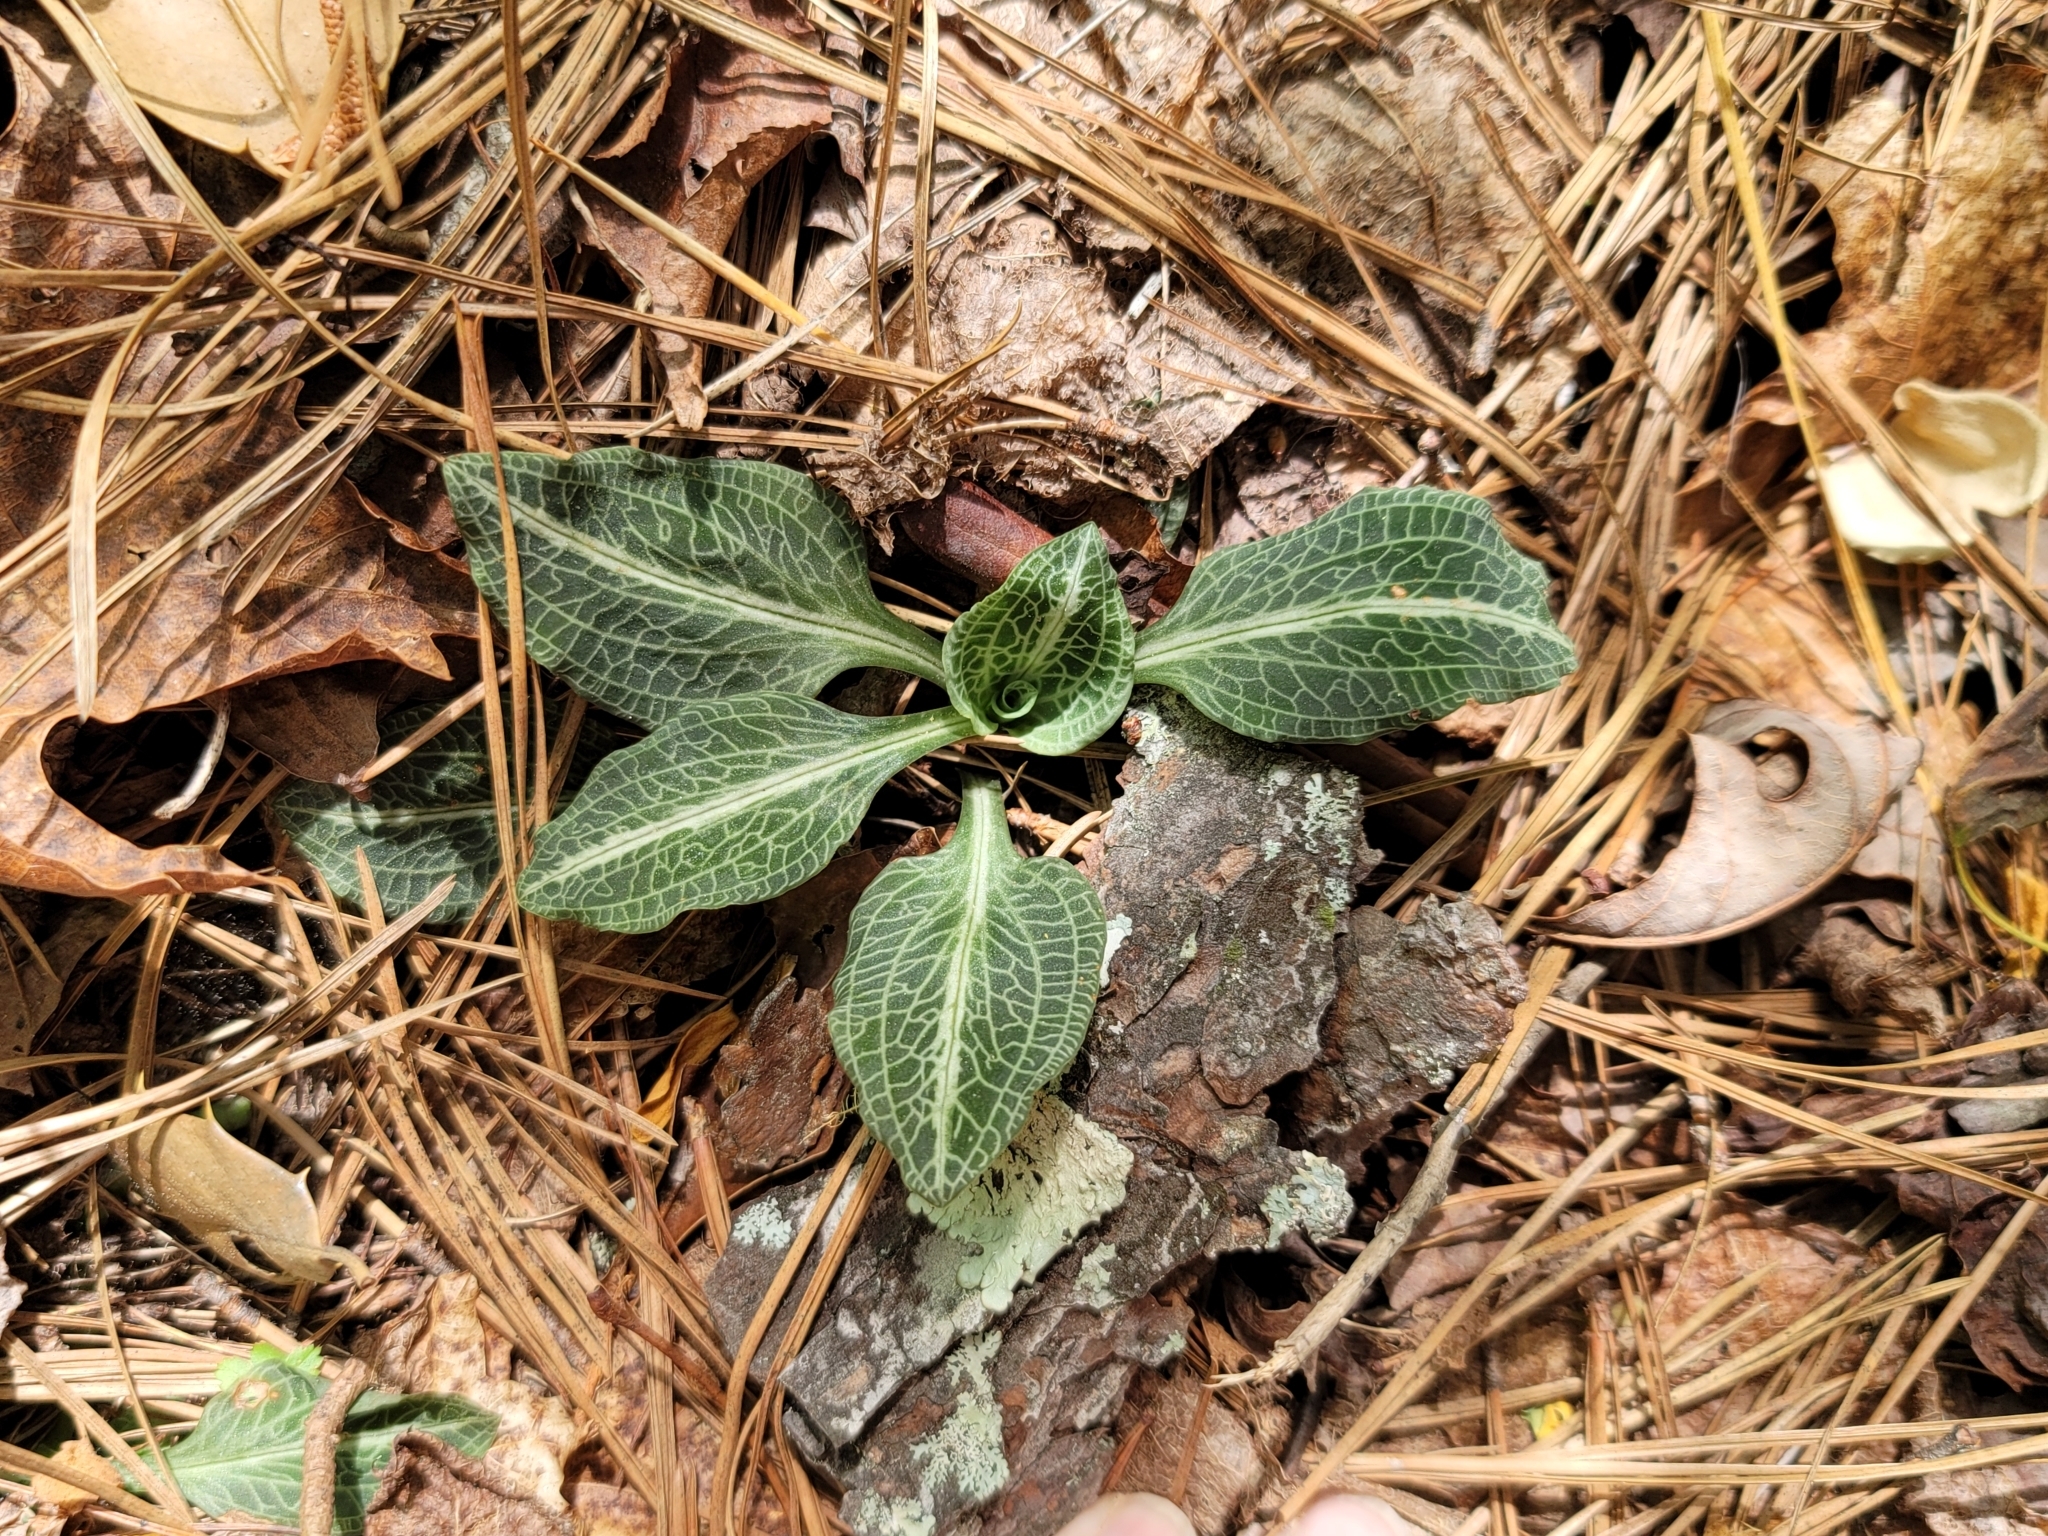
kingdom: Plantae
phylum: Tracheophyta
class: Liliopsida
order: Asparagales
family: Orchidaceae
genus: Goodyera
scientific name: Goodyera pubescens
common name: Downy rattlesnake-plantain
